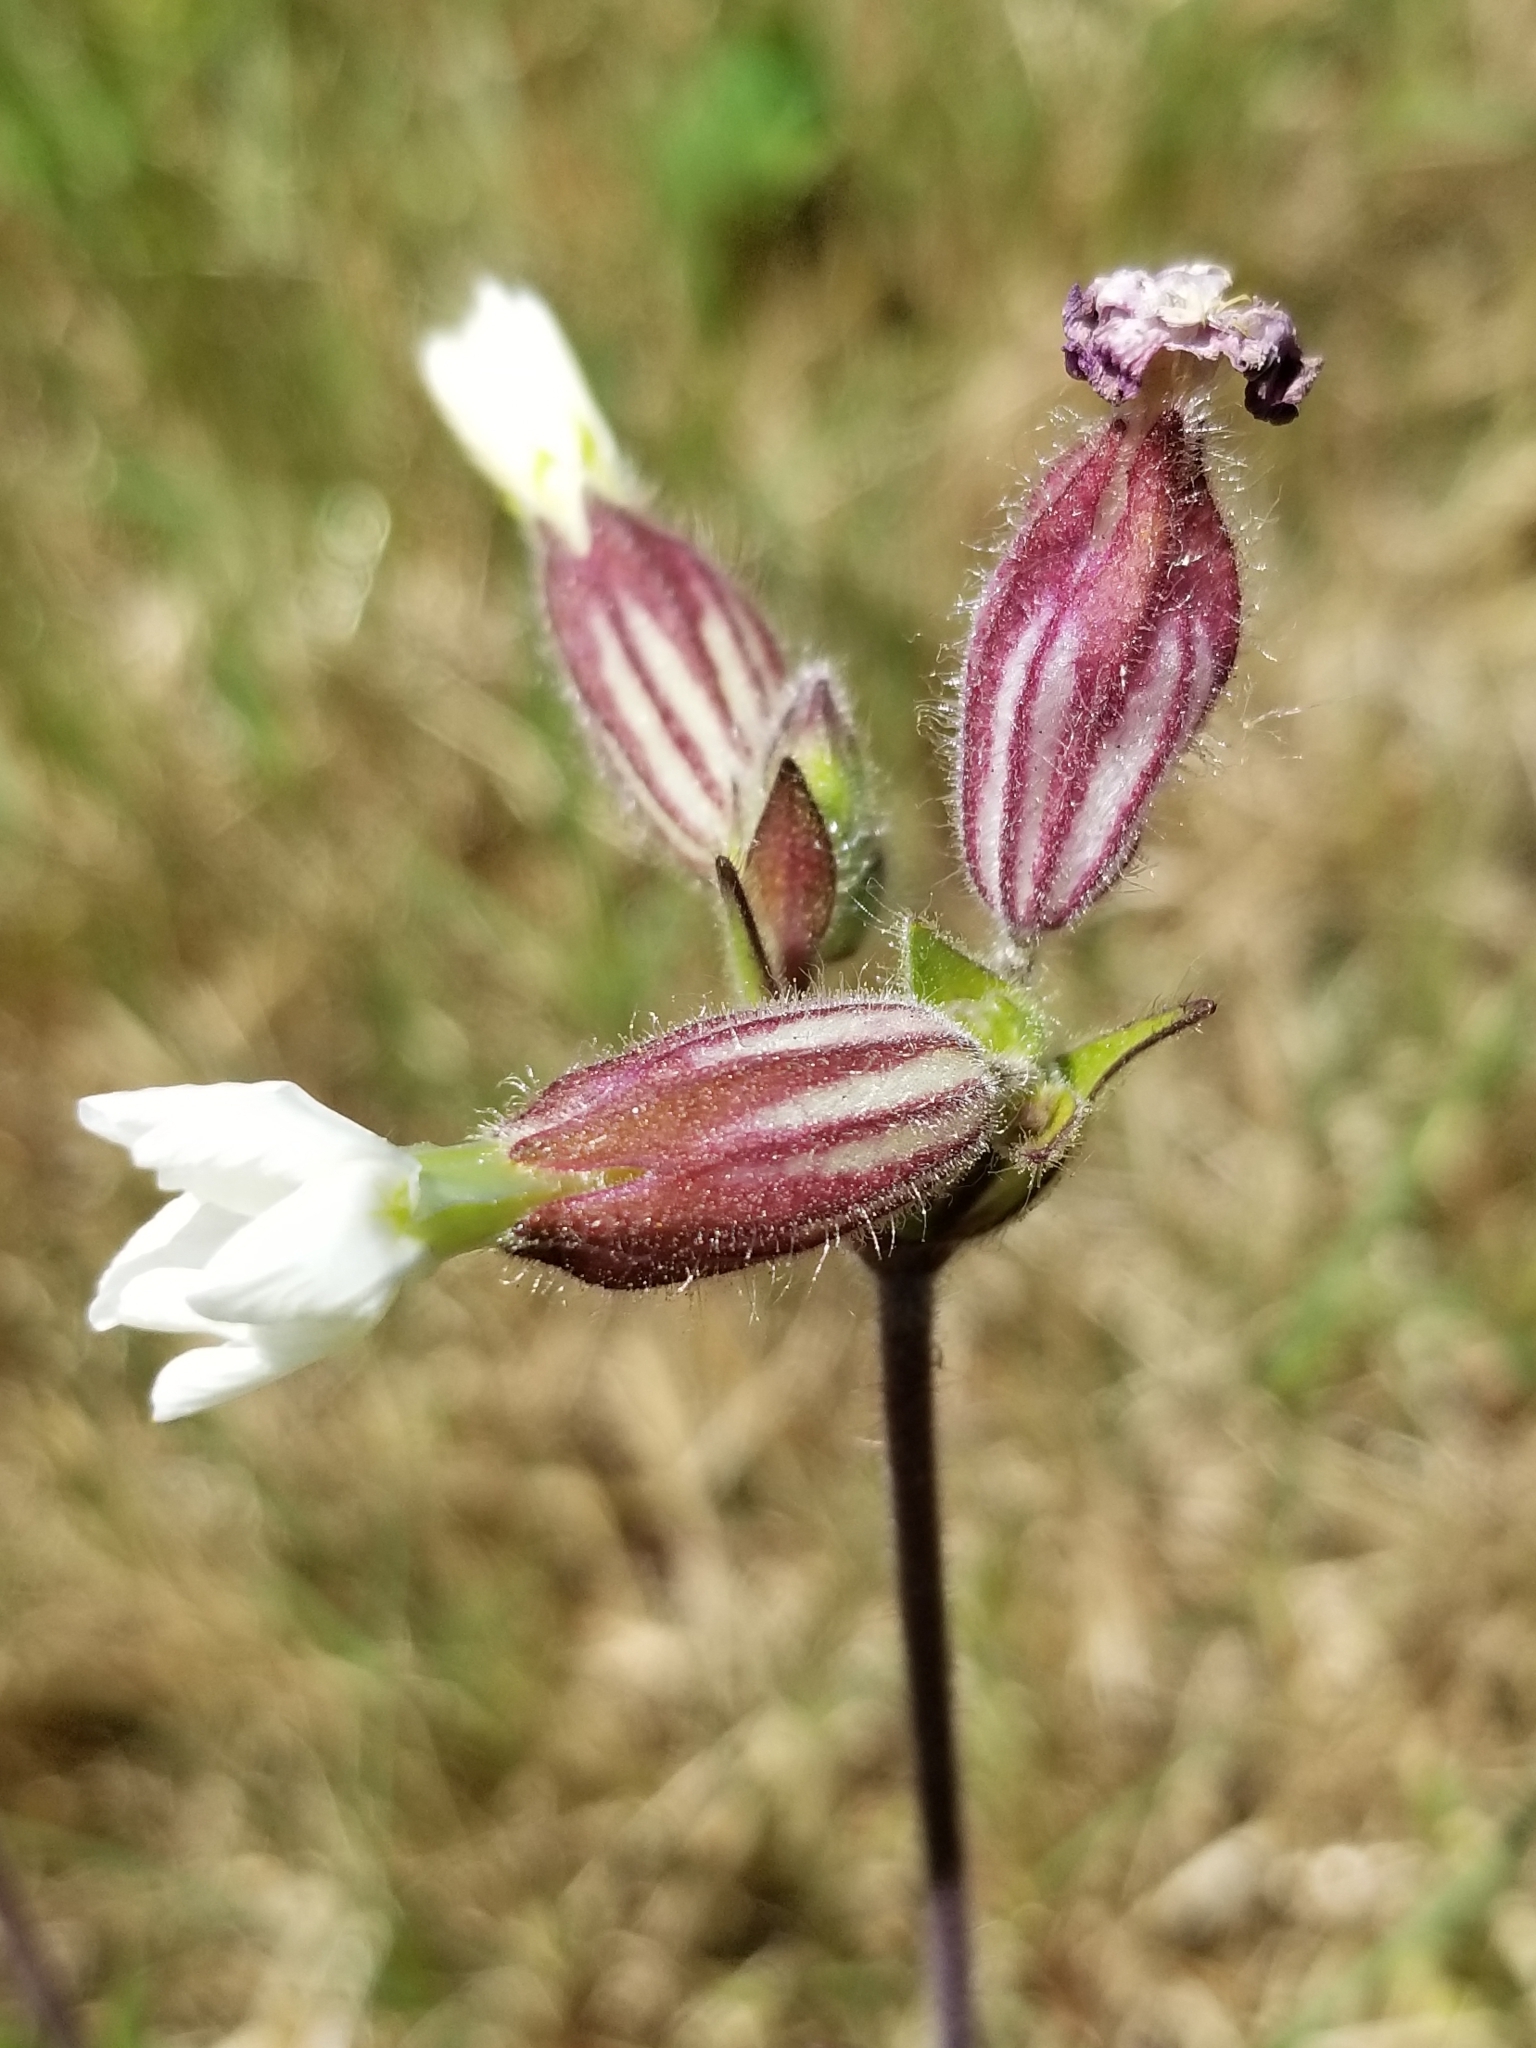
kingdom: Plantae
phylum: Tracheophyta
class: Magnoliopsida
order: Caryophyllales
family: Caryophyllaceae
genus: Silene
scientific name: Silene latifolia
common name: White campion
